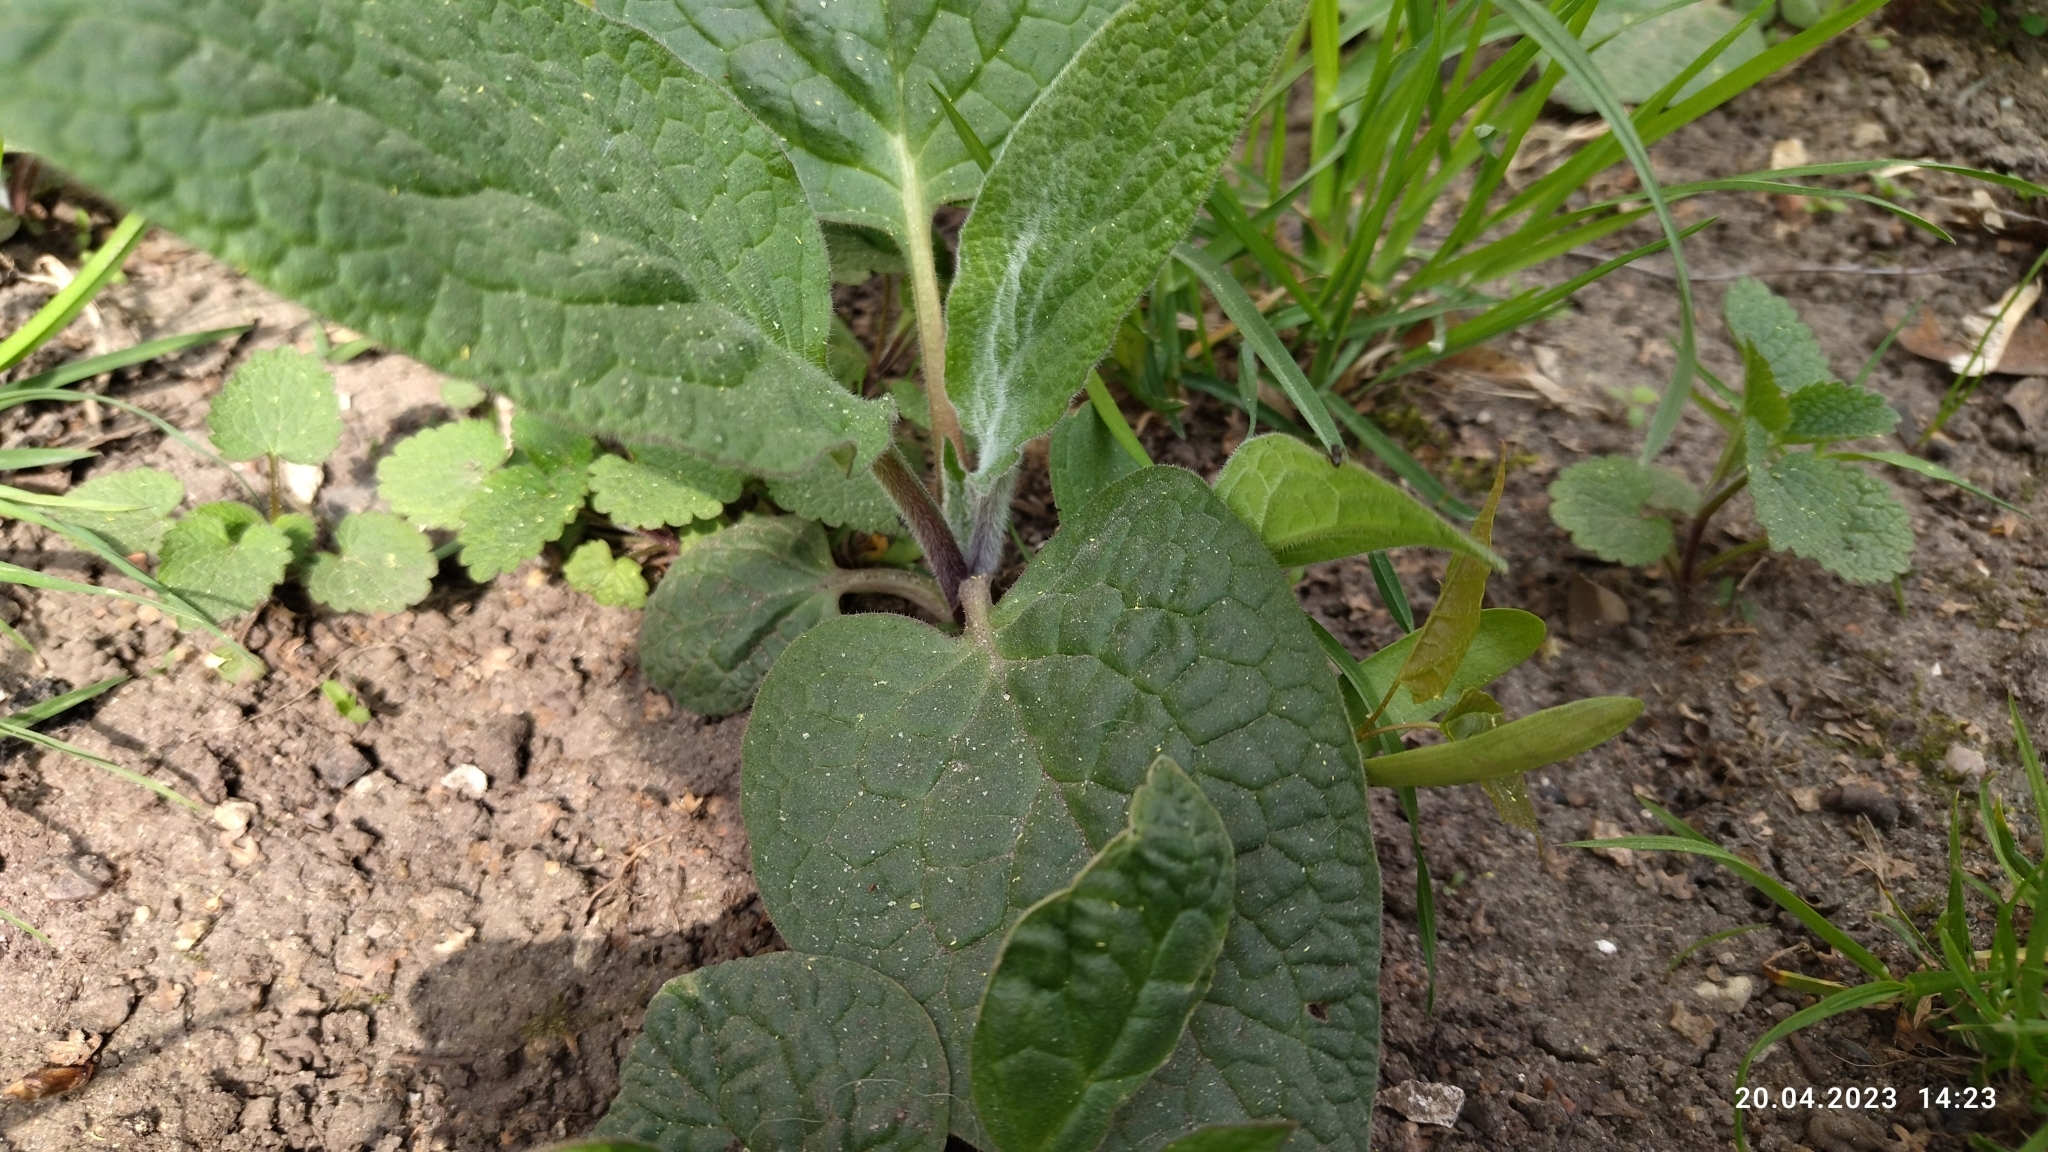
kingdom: Plantae
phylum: Tracheophyta
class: Magnoliopsida
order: Boraginales
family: Boraginaceae
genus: Symphytum
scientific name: Symphytum
